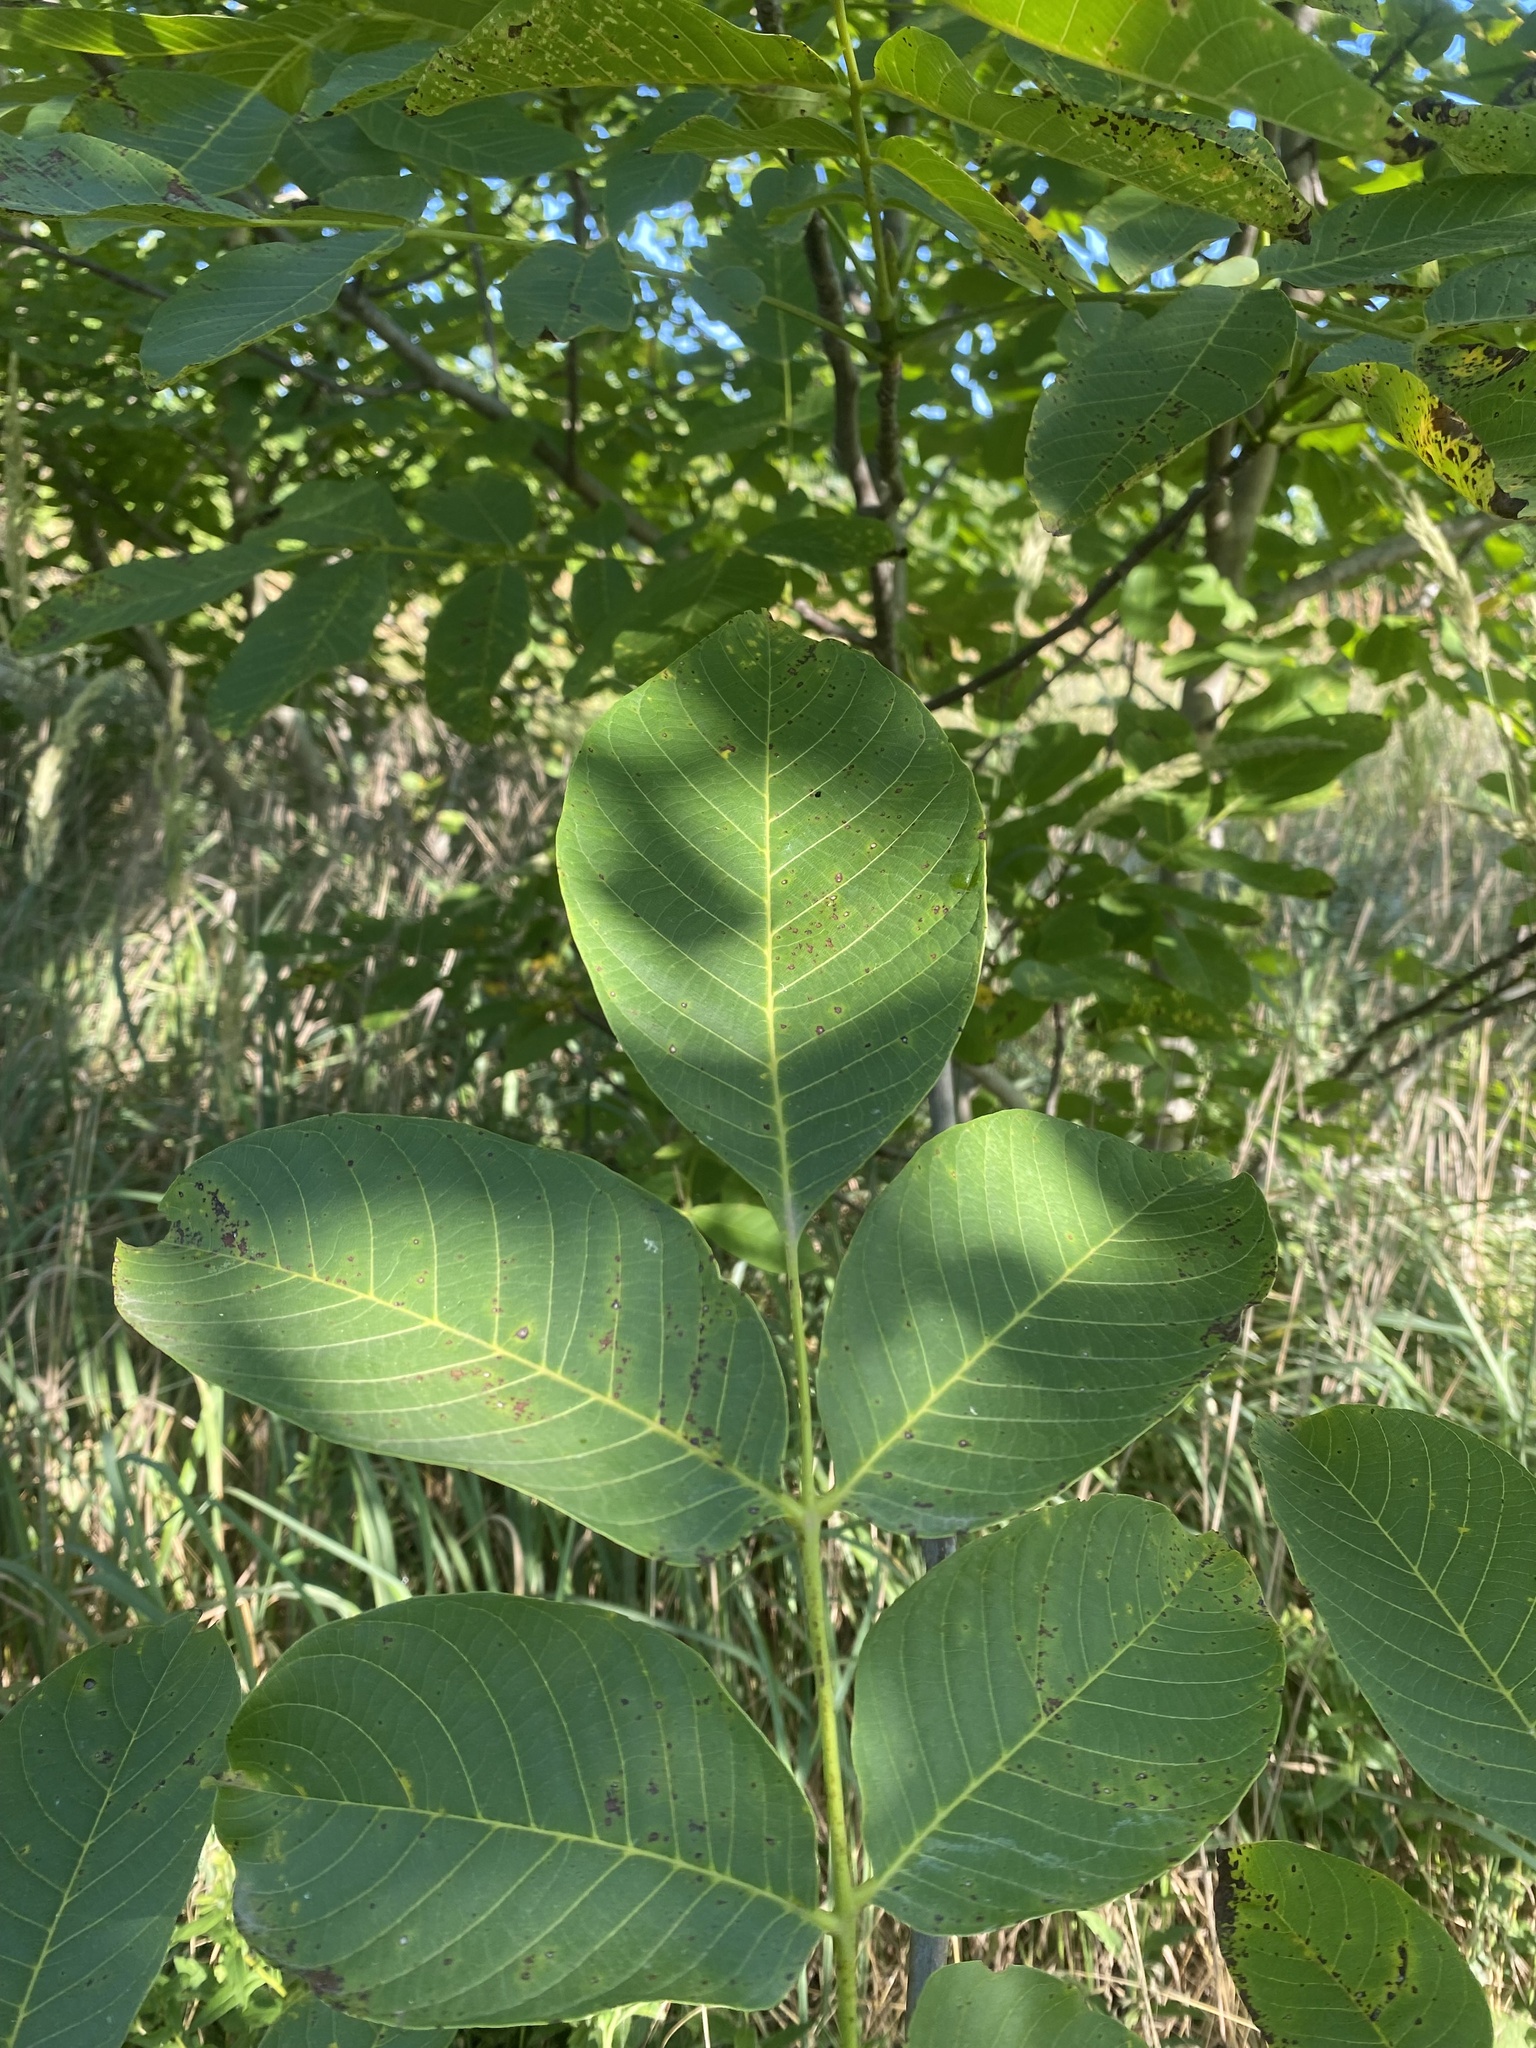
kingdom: Plantae
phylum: Tracheophyta
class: Magnoliopsida
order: Fagales
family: Juglandaceae
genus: Juglans
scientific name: Juglans regia
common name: Walnut
